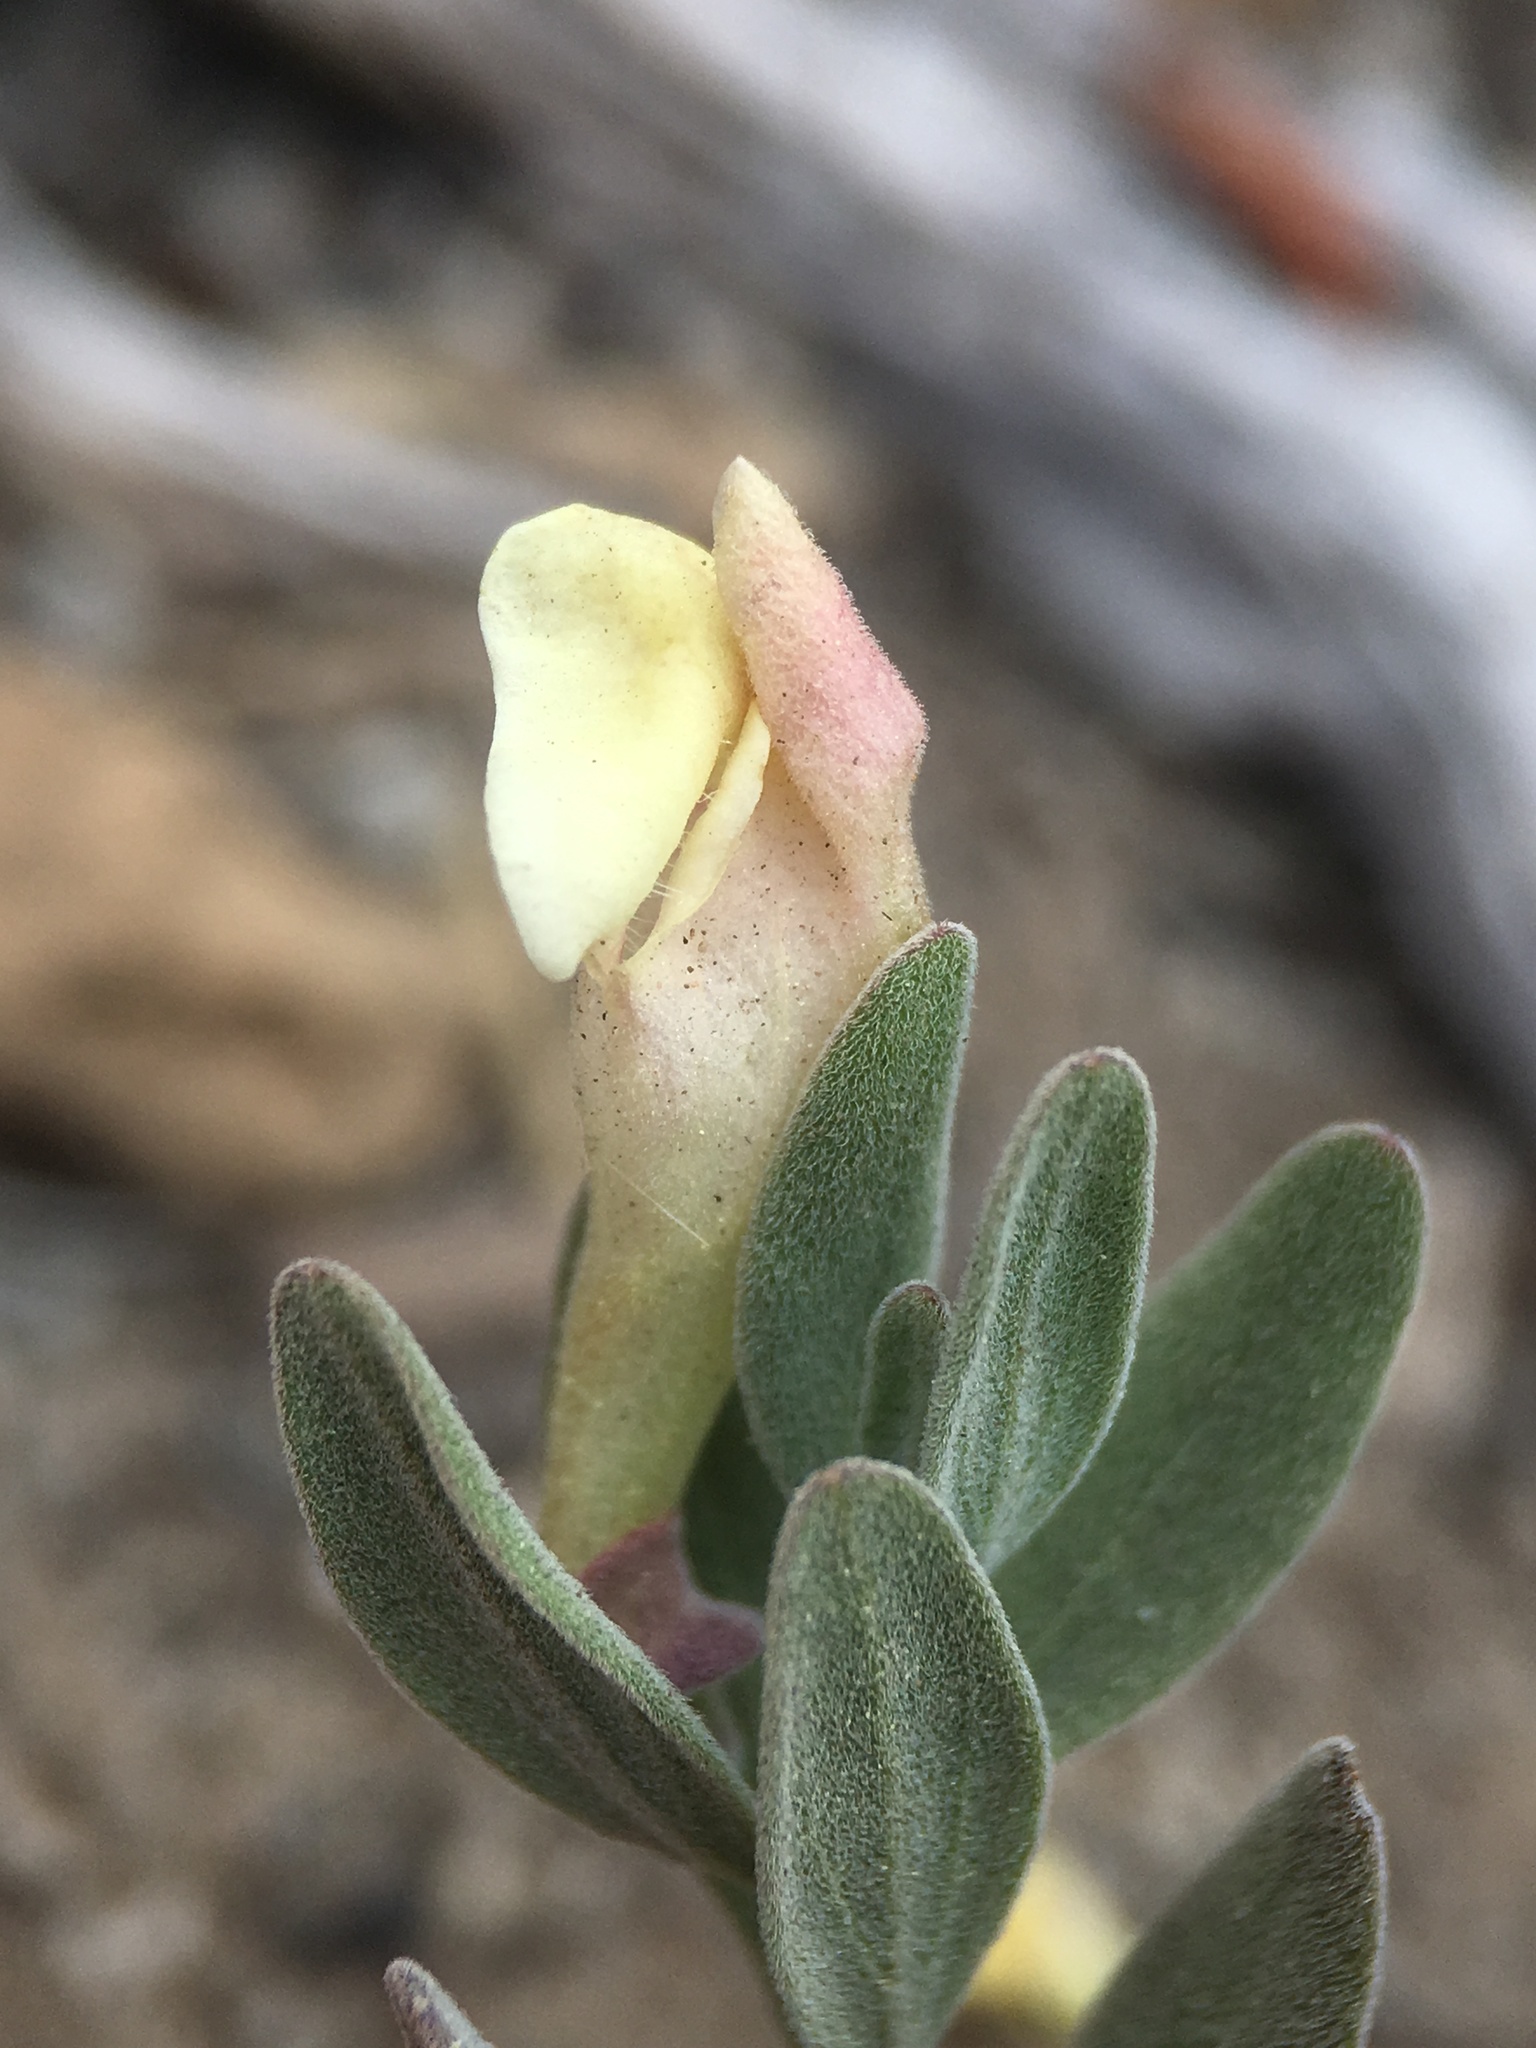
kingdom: Plantae
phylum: Tracheophyta
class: Magnoliopsida
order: Lamiales
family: Lamiaceae
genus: Scutellaria
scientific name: Scutellaria nana
